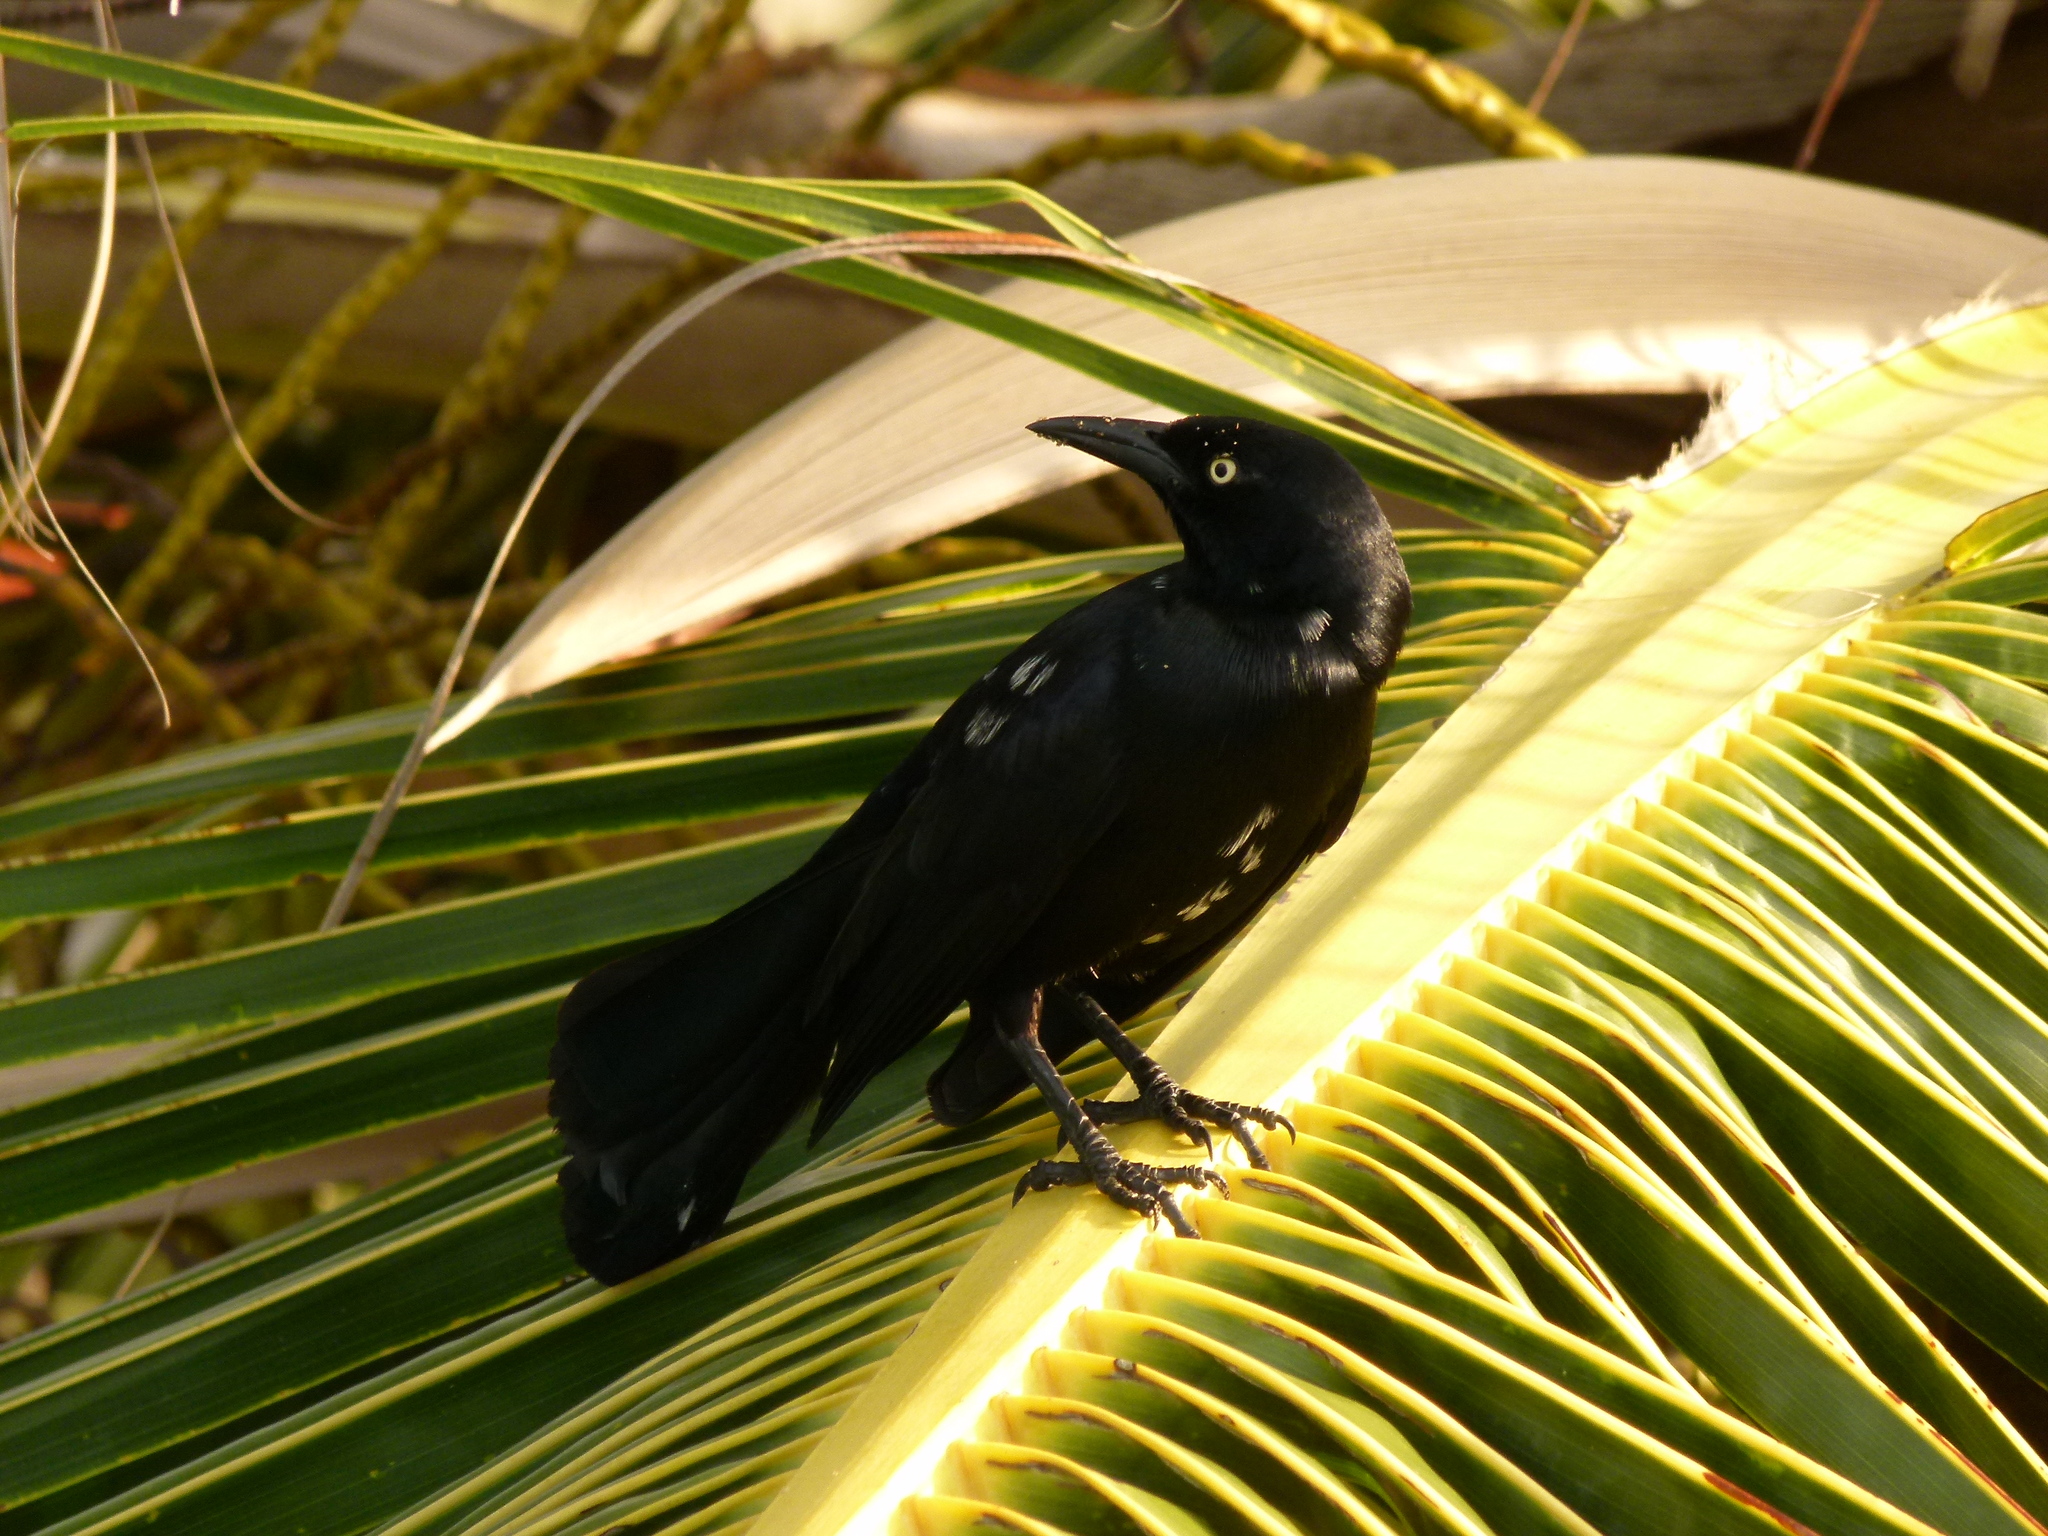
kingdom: Animalia
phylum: Chordata
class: Aves
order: Passeriformes
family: Icteridae
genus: Quiscalus
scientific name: Quiscalus niger
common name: Greater antillean grackle
